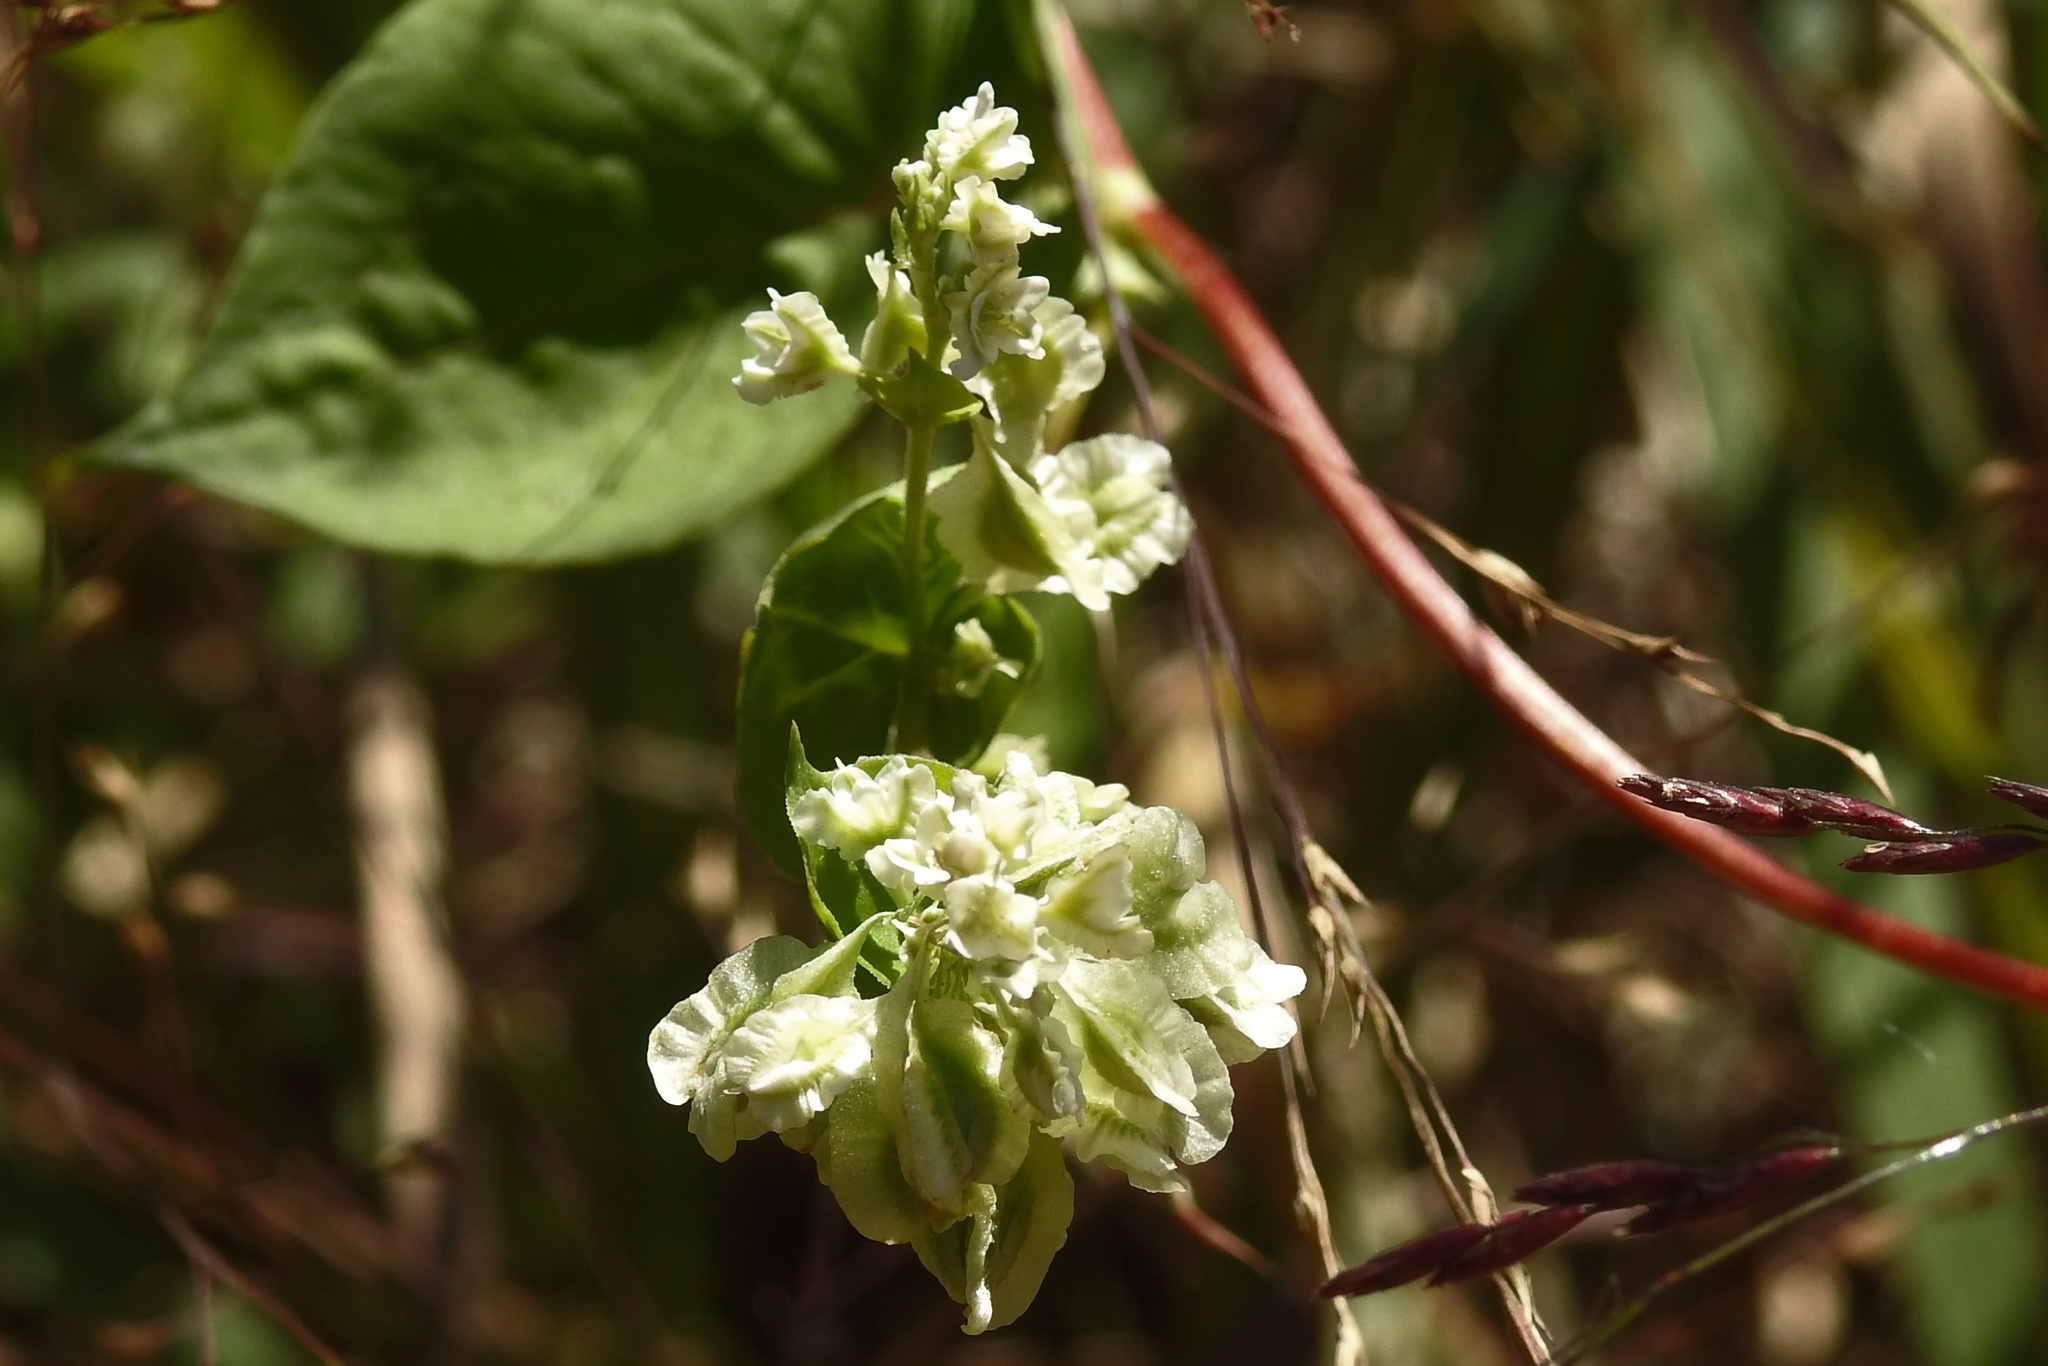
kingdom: Plantae
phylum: Tracheophyta
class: Magnoliopsida
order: Caryophyllales
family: Polygonaceae
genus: Fallopia
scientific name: Fallopia scandens
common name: Climbing false buckwheat
